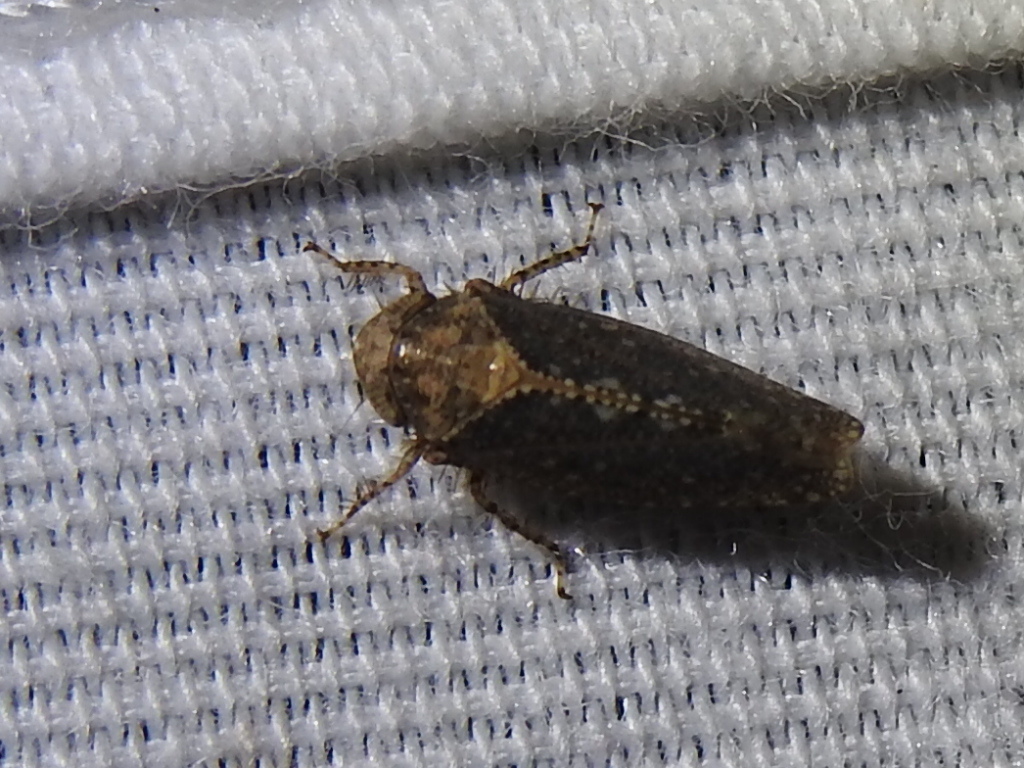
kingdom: Animalia
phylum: Arthropoda
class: Insecta
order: Hemiptera
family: Cicadellidae
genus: Excultanus
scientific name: Excultanus excultus
